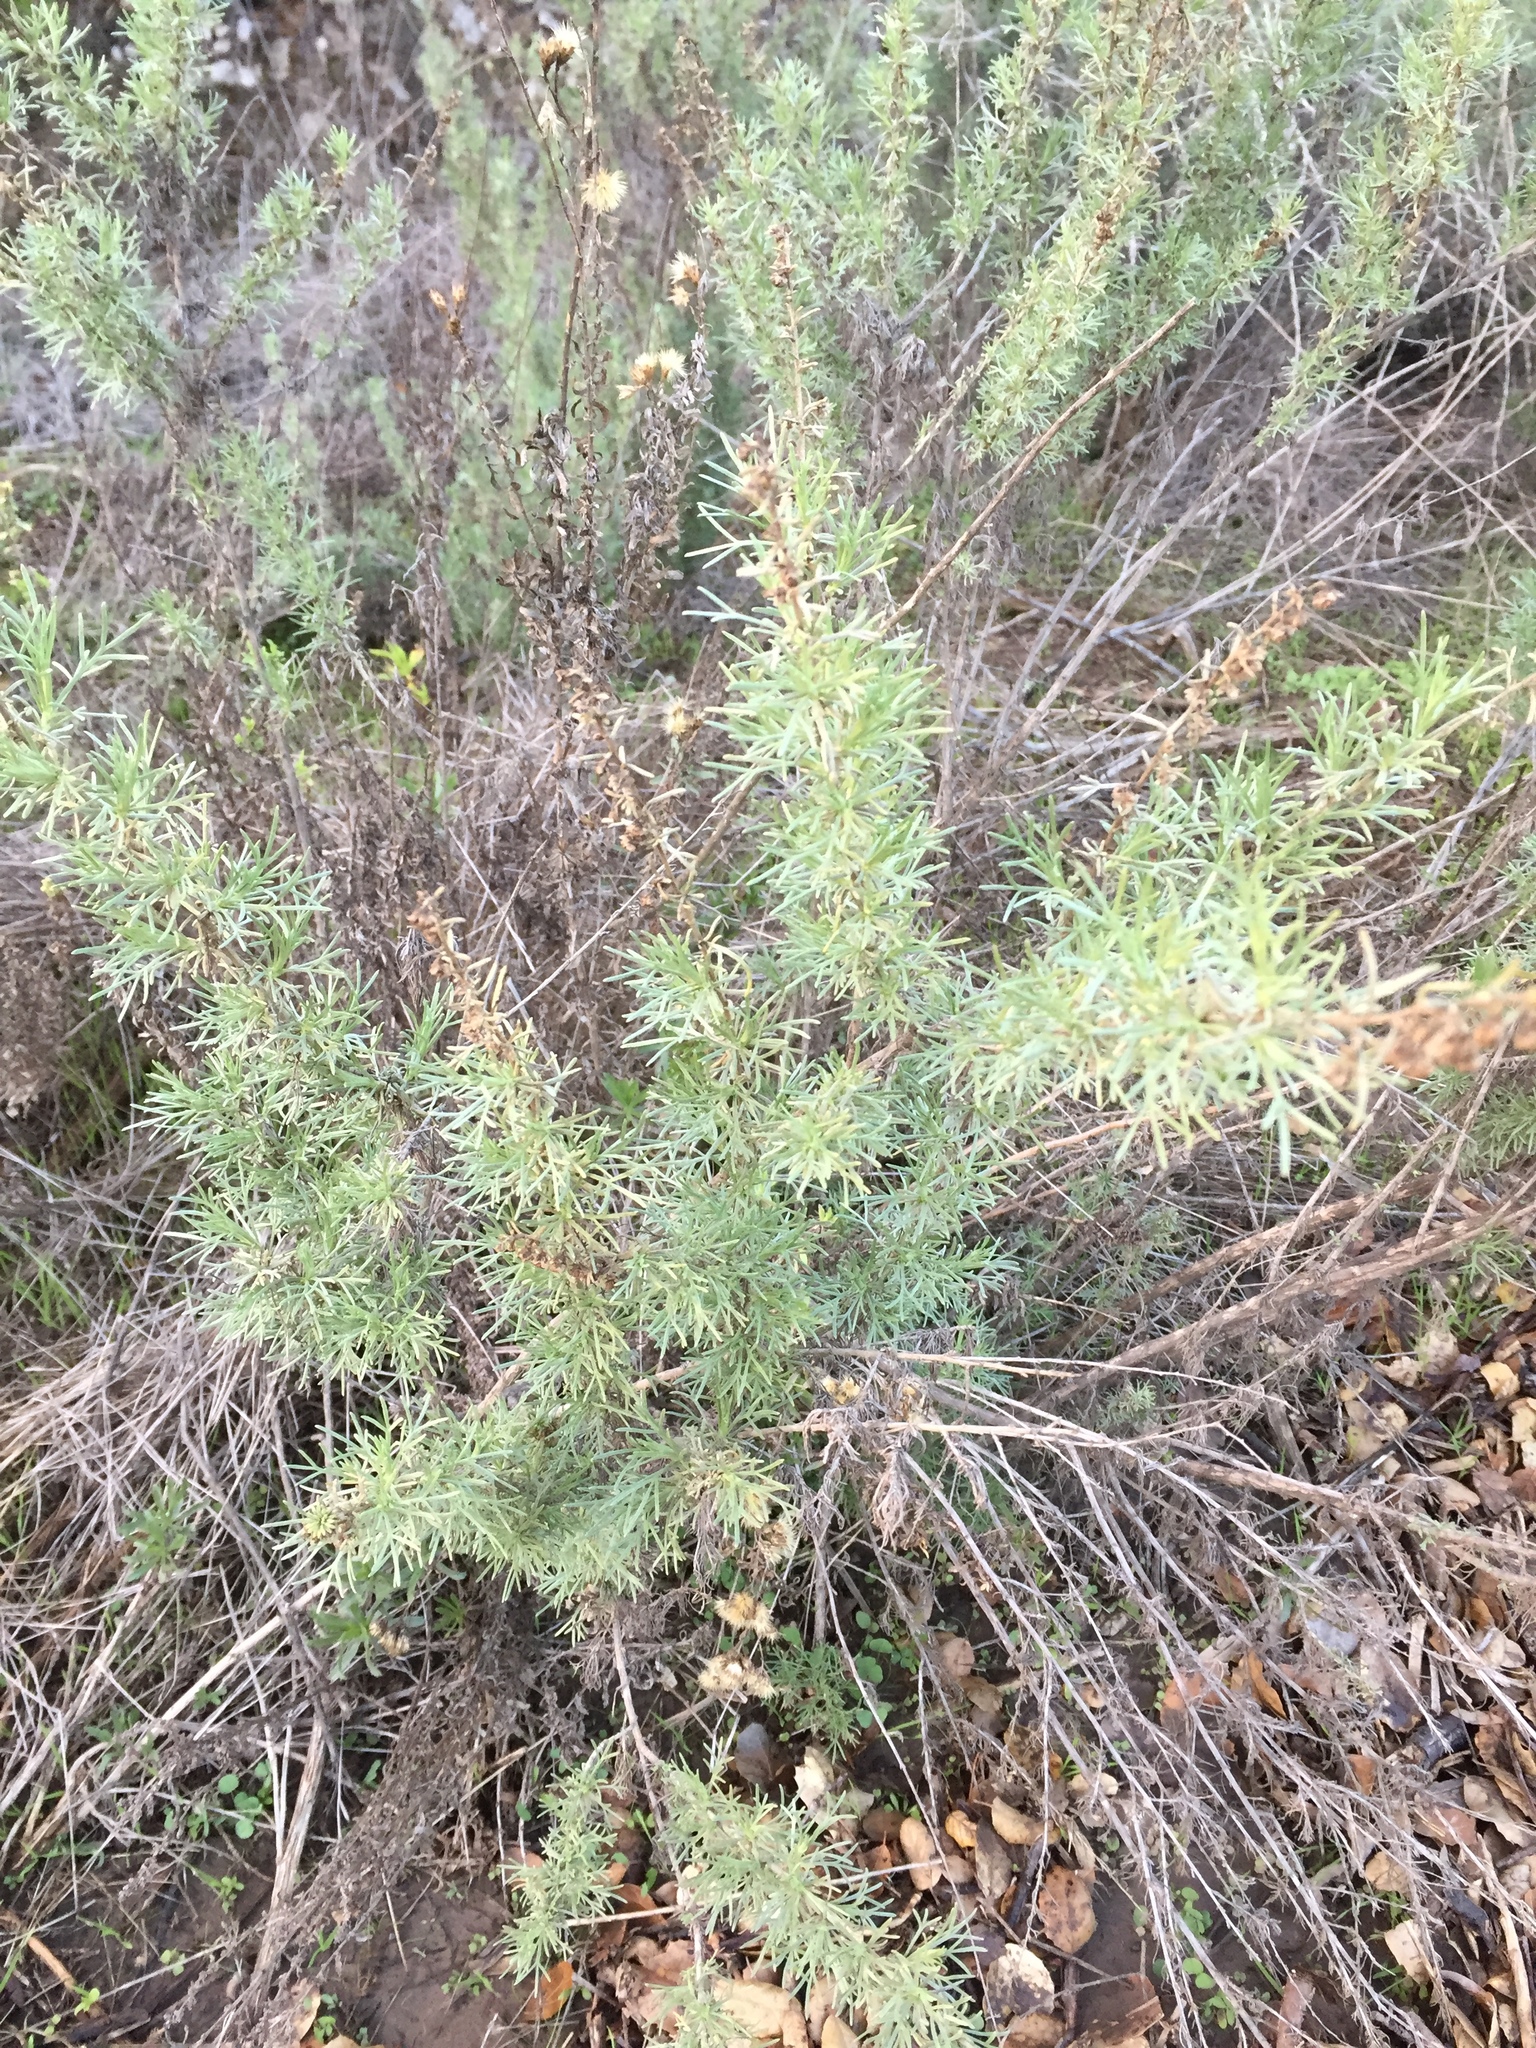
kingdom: Plantae
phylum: Tracheophyta
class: Magnoliopsida
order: Asterales
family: Asteraceae
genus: Artemisia
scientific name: Artemisia californica
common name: California sagebrush
